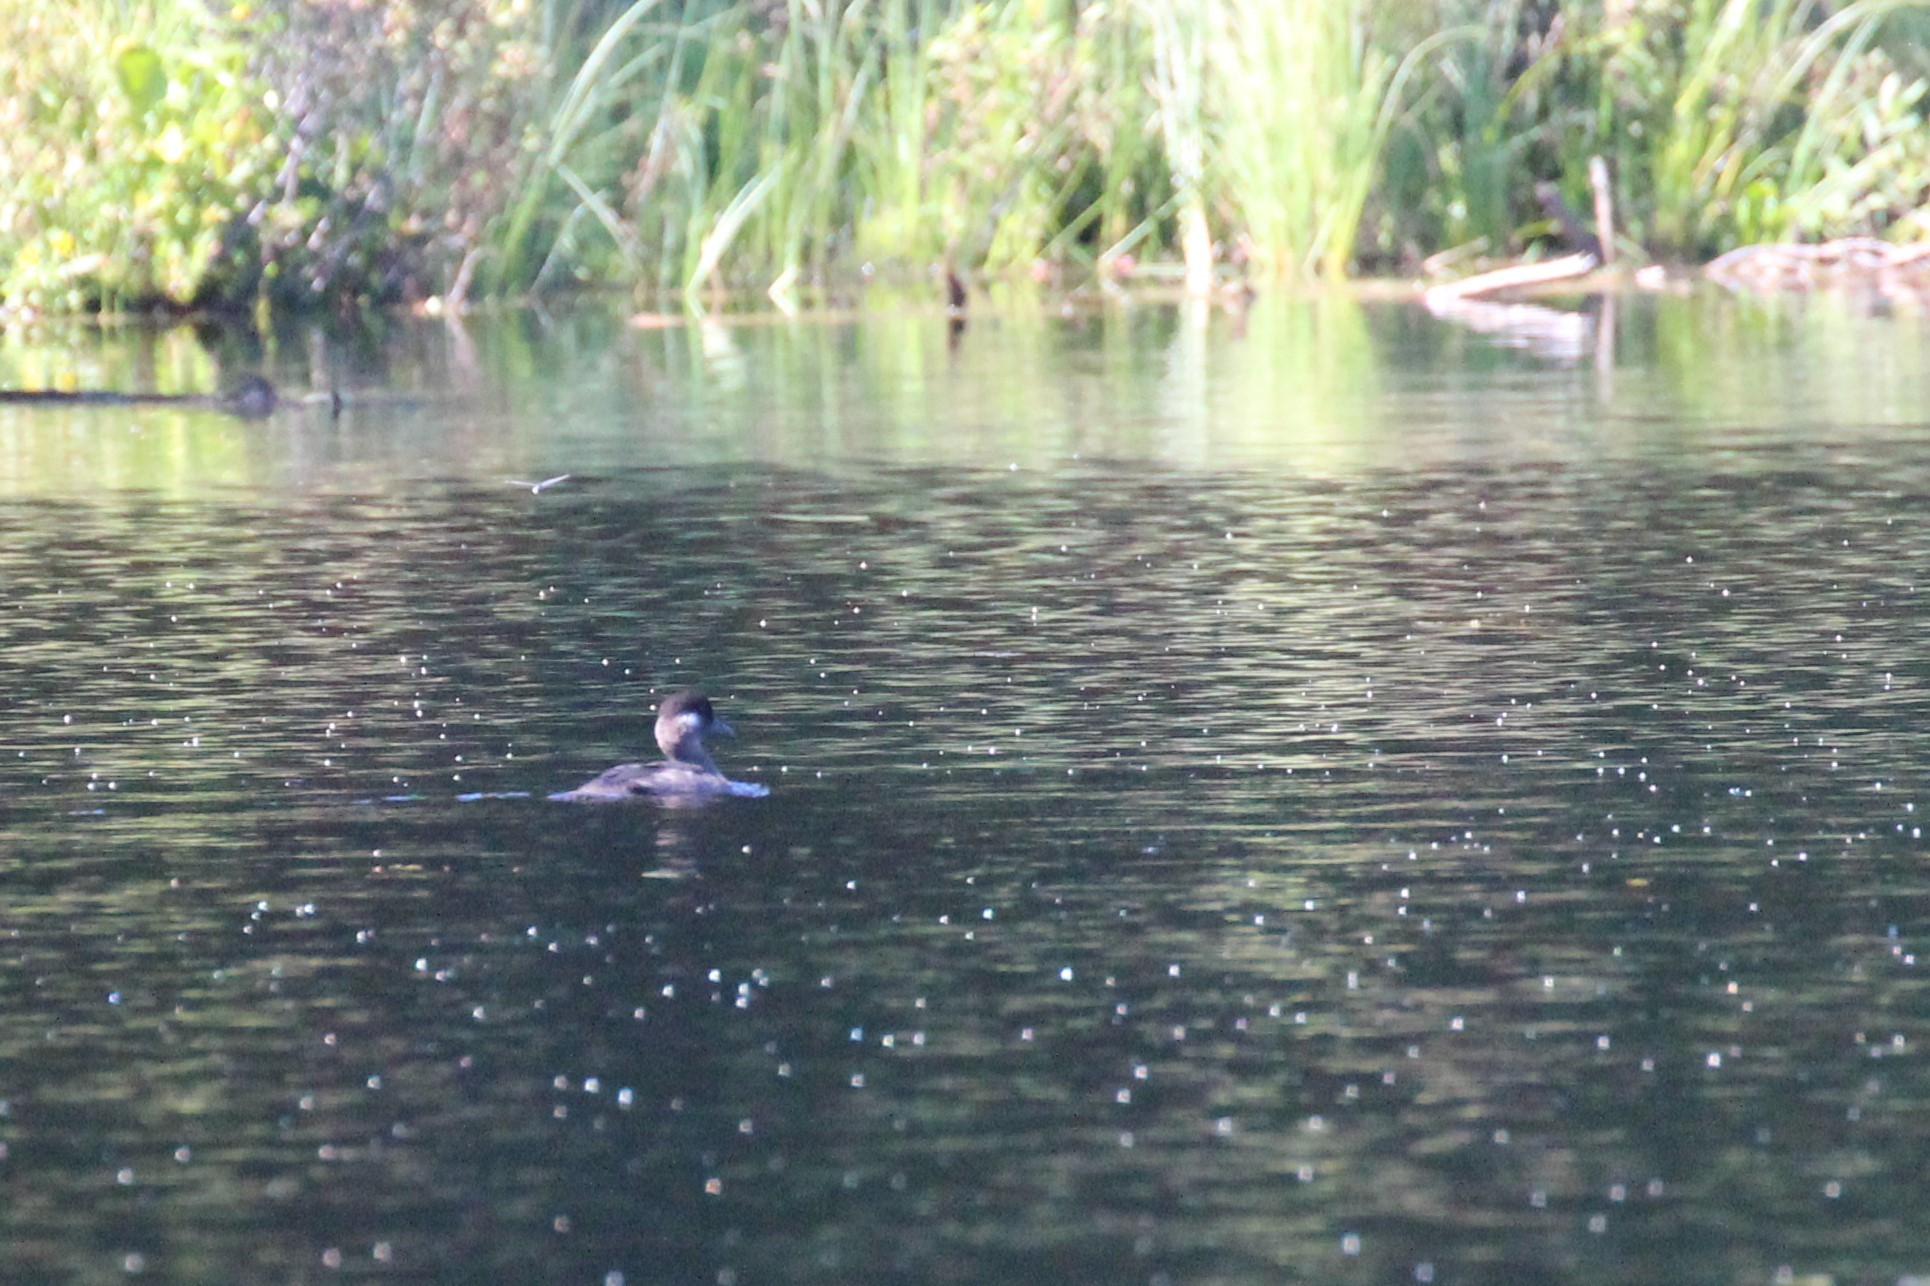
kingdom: Animalia
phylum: Chordata
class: Aves
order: Anseriformes
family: Anatidae
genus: Bucephala
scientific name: Bucephala albeola
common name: Bufflehead
